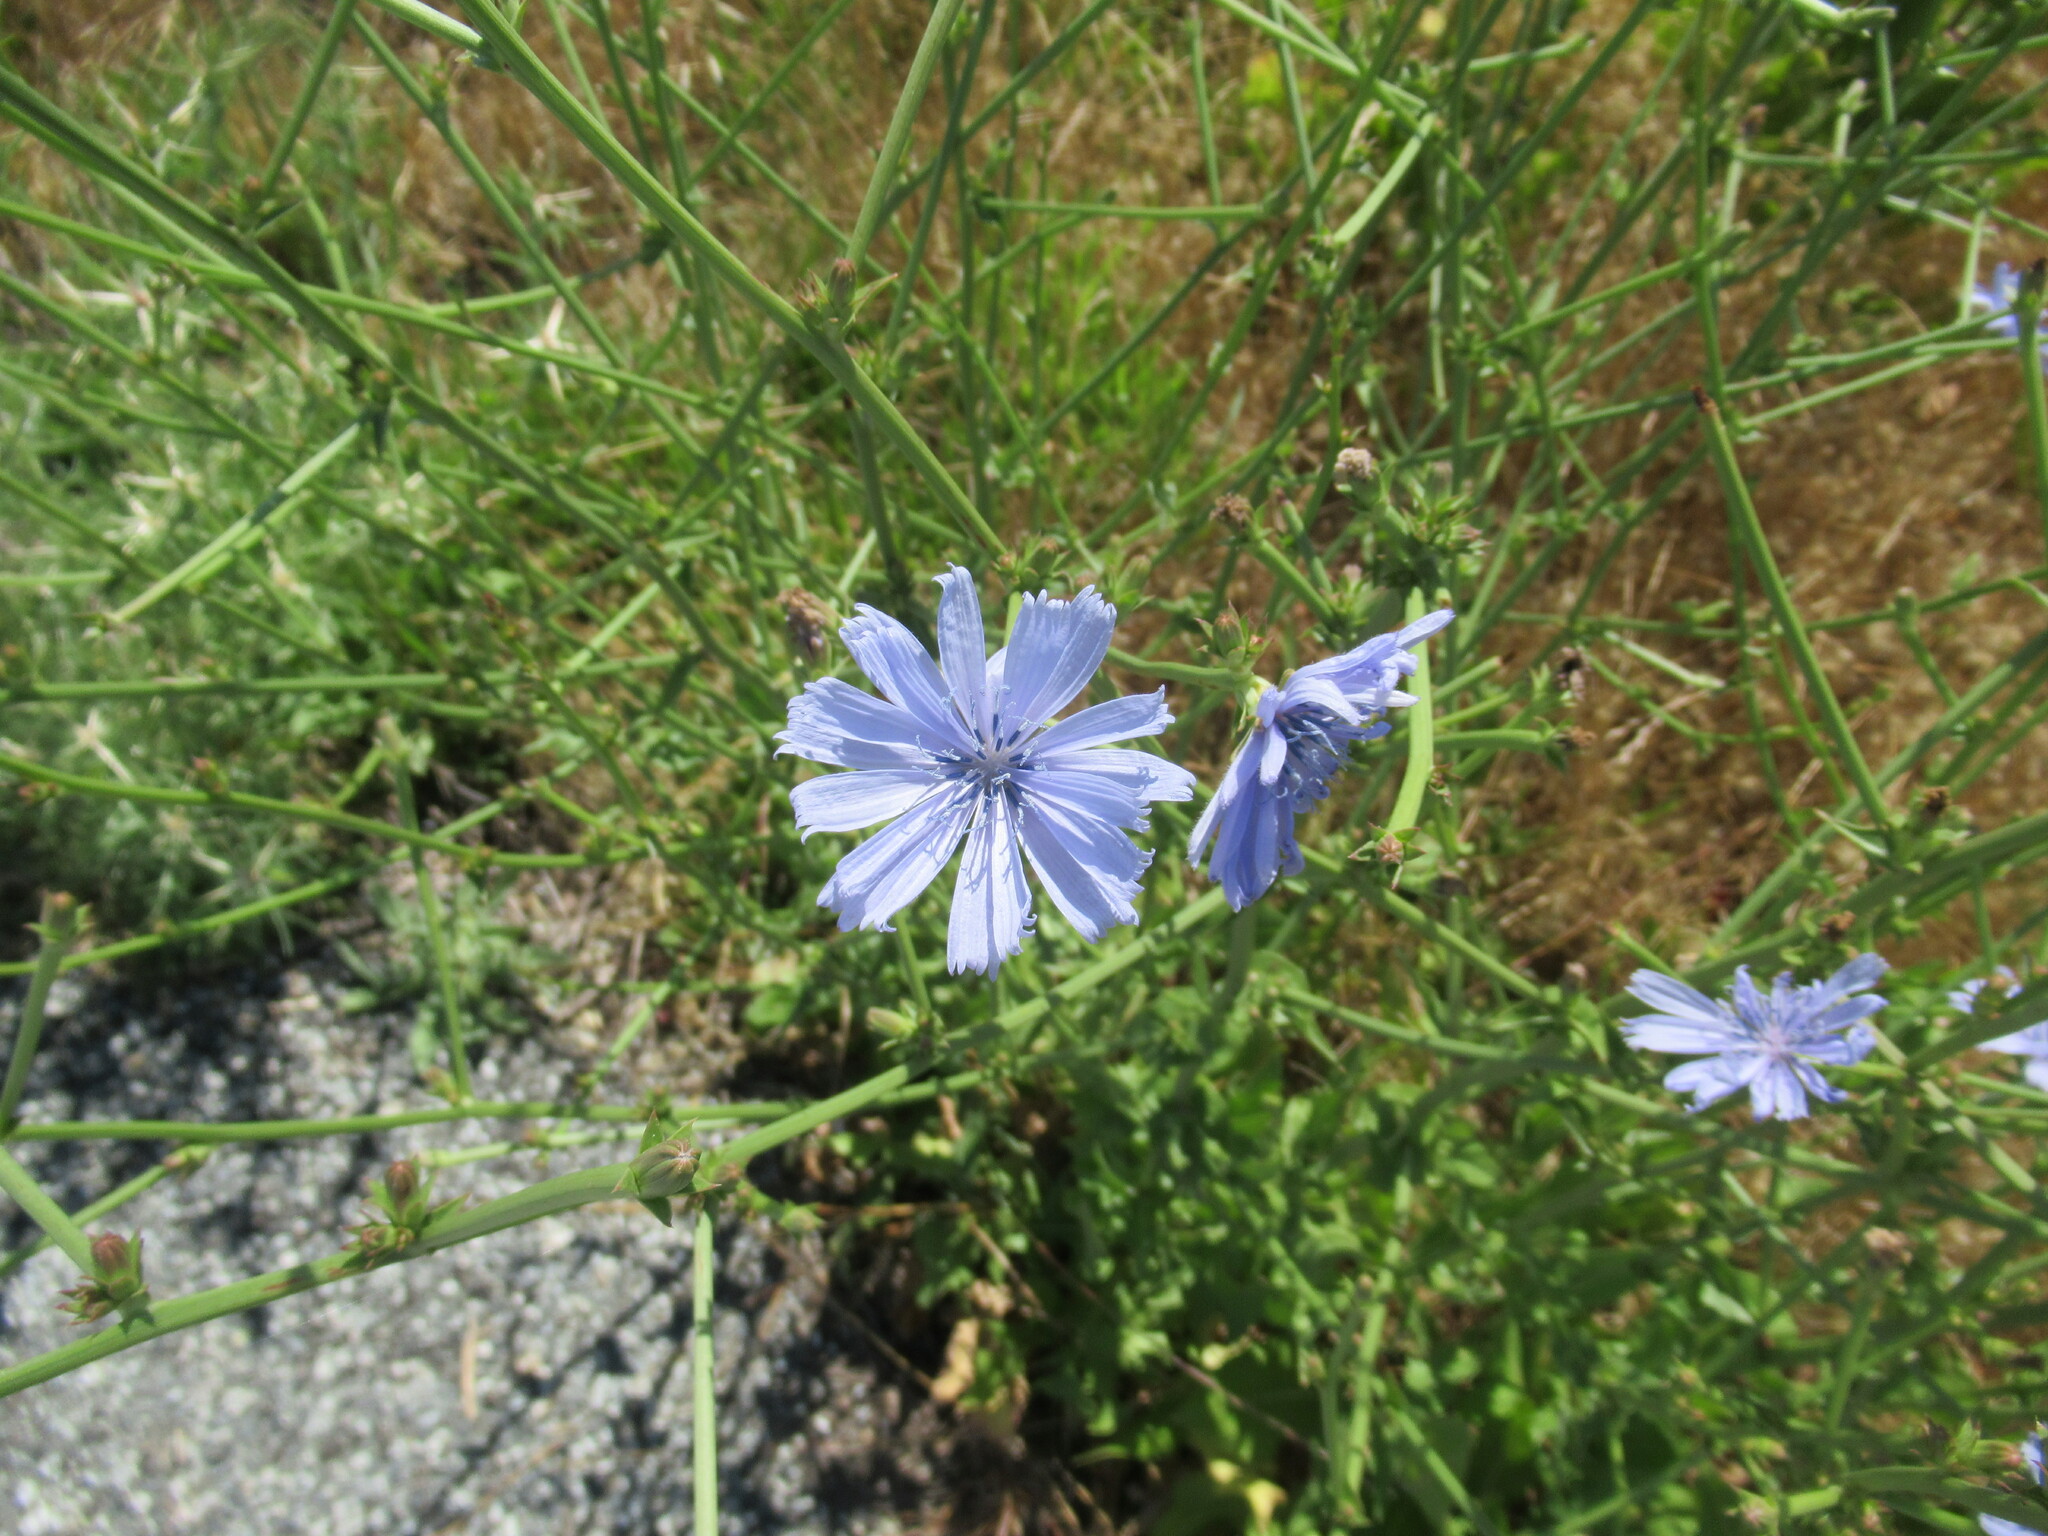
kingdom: Plantae
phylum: Tracheophyta
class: Magnoliopsida
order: Asterales
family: Asteraceae
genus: Cichorium
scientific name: Cichorium intybus
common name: Chicory
